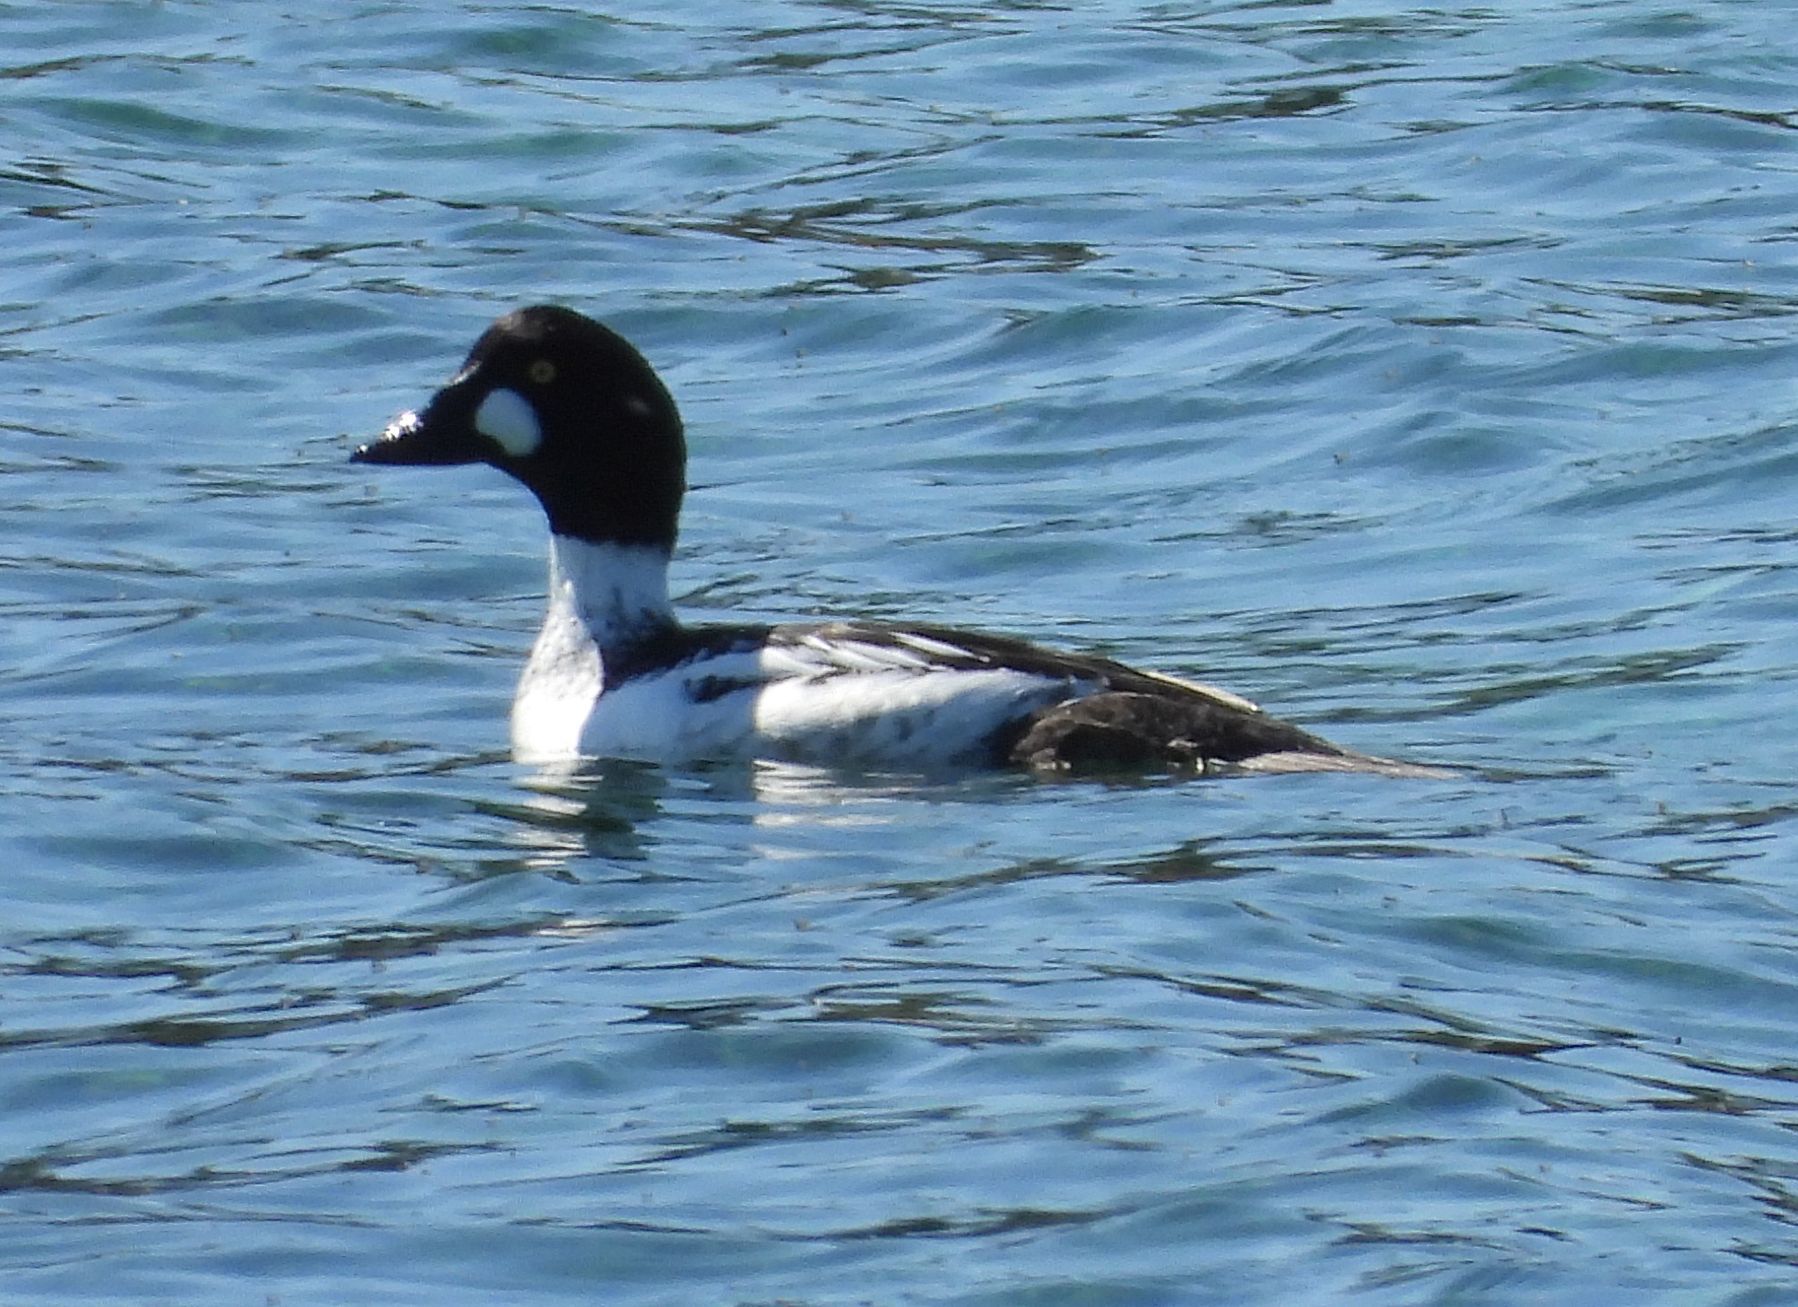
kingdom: Animalia
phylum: Chordata
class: Aves
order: Anseriformes
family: Anatidae
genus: Bucephala
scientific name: Bucephala clangula
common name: Common goldeneye
